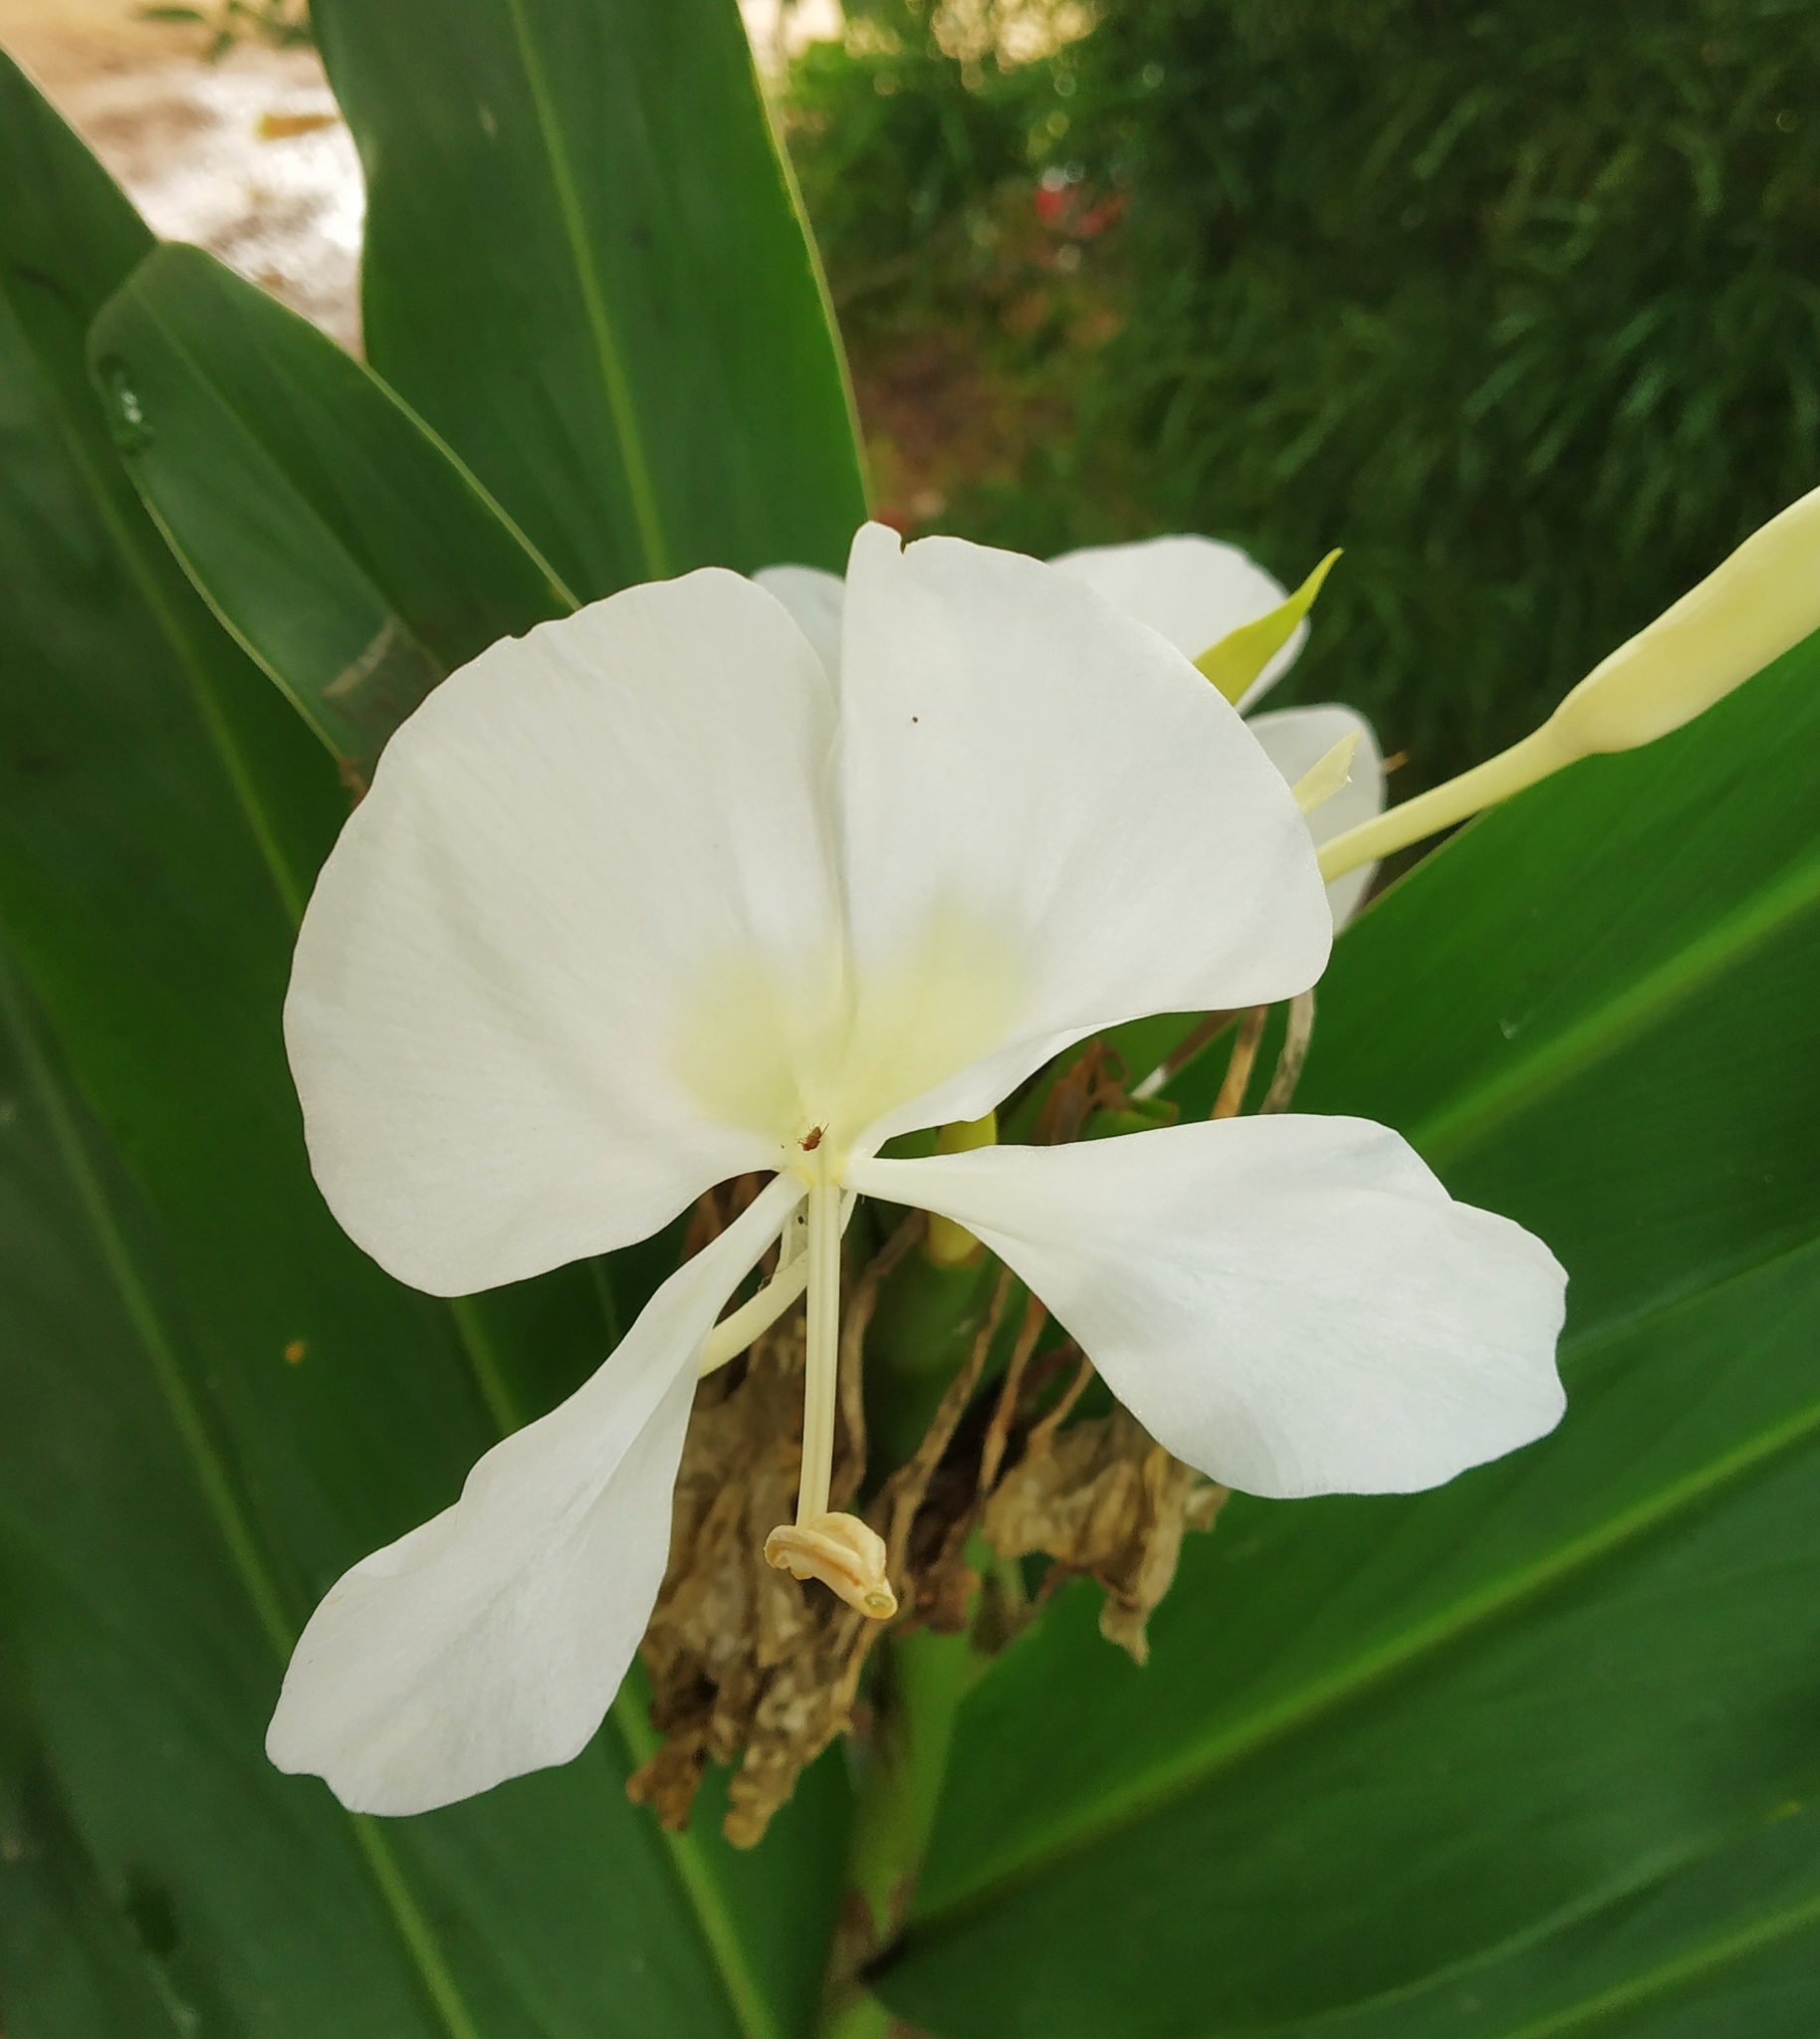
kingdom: Plantae
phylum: Tracheophyta
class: Liliopsida
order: Zingiberales
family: Zingiberaceae
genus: Hedychium
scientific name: Hedychium coronarium
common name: White garland-lily
